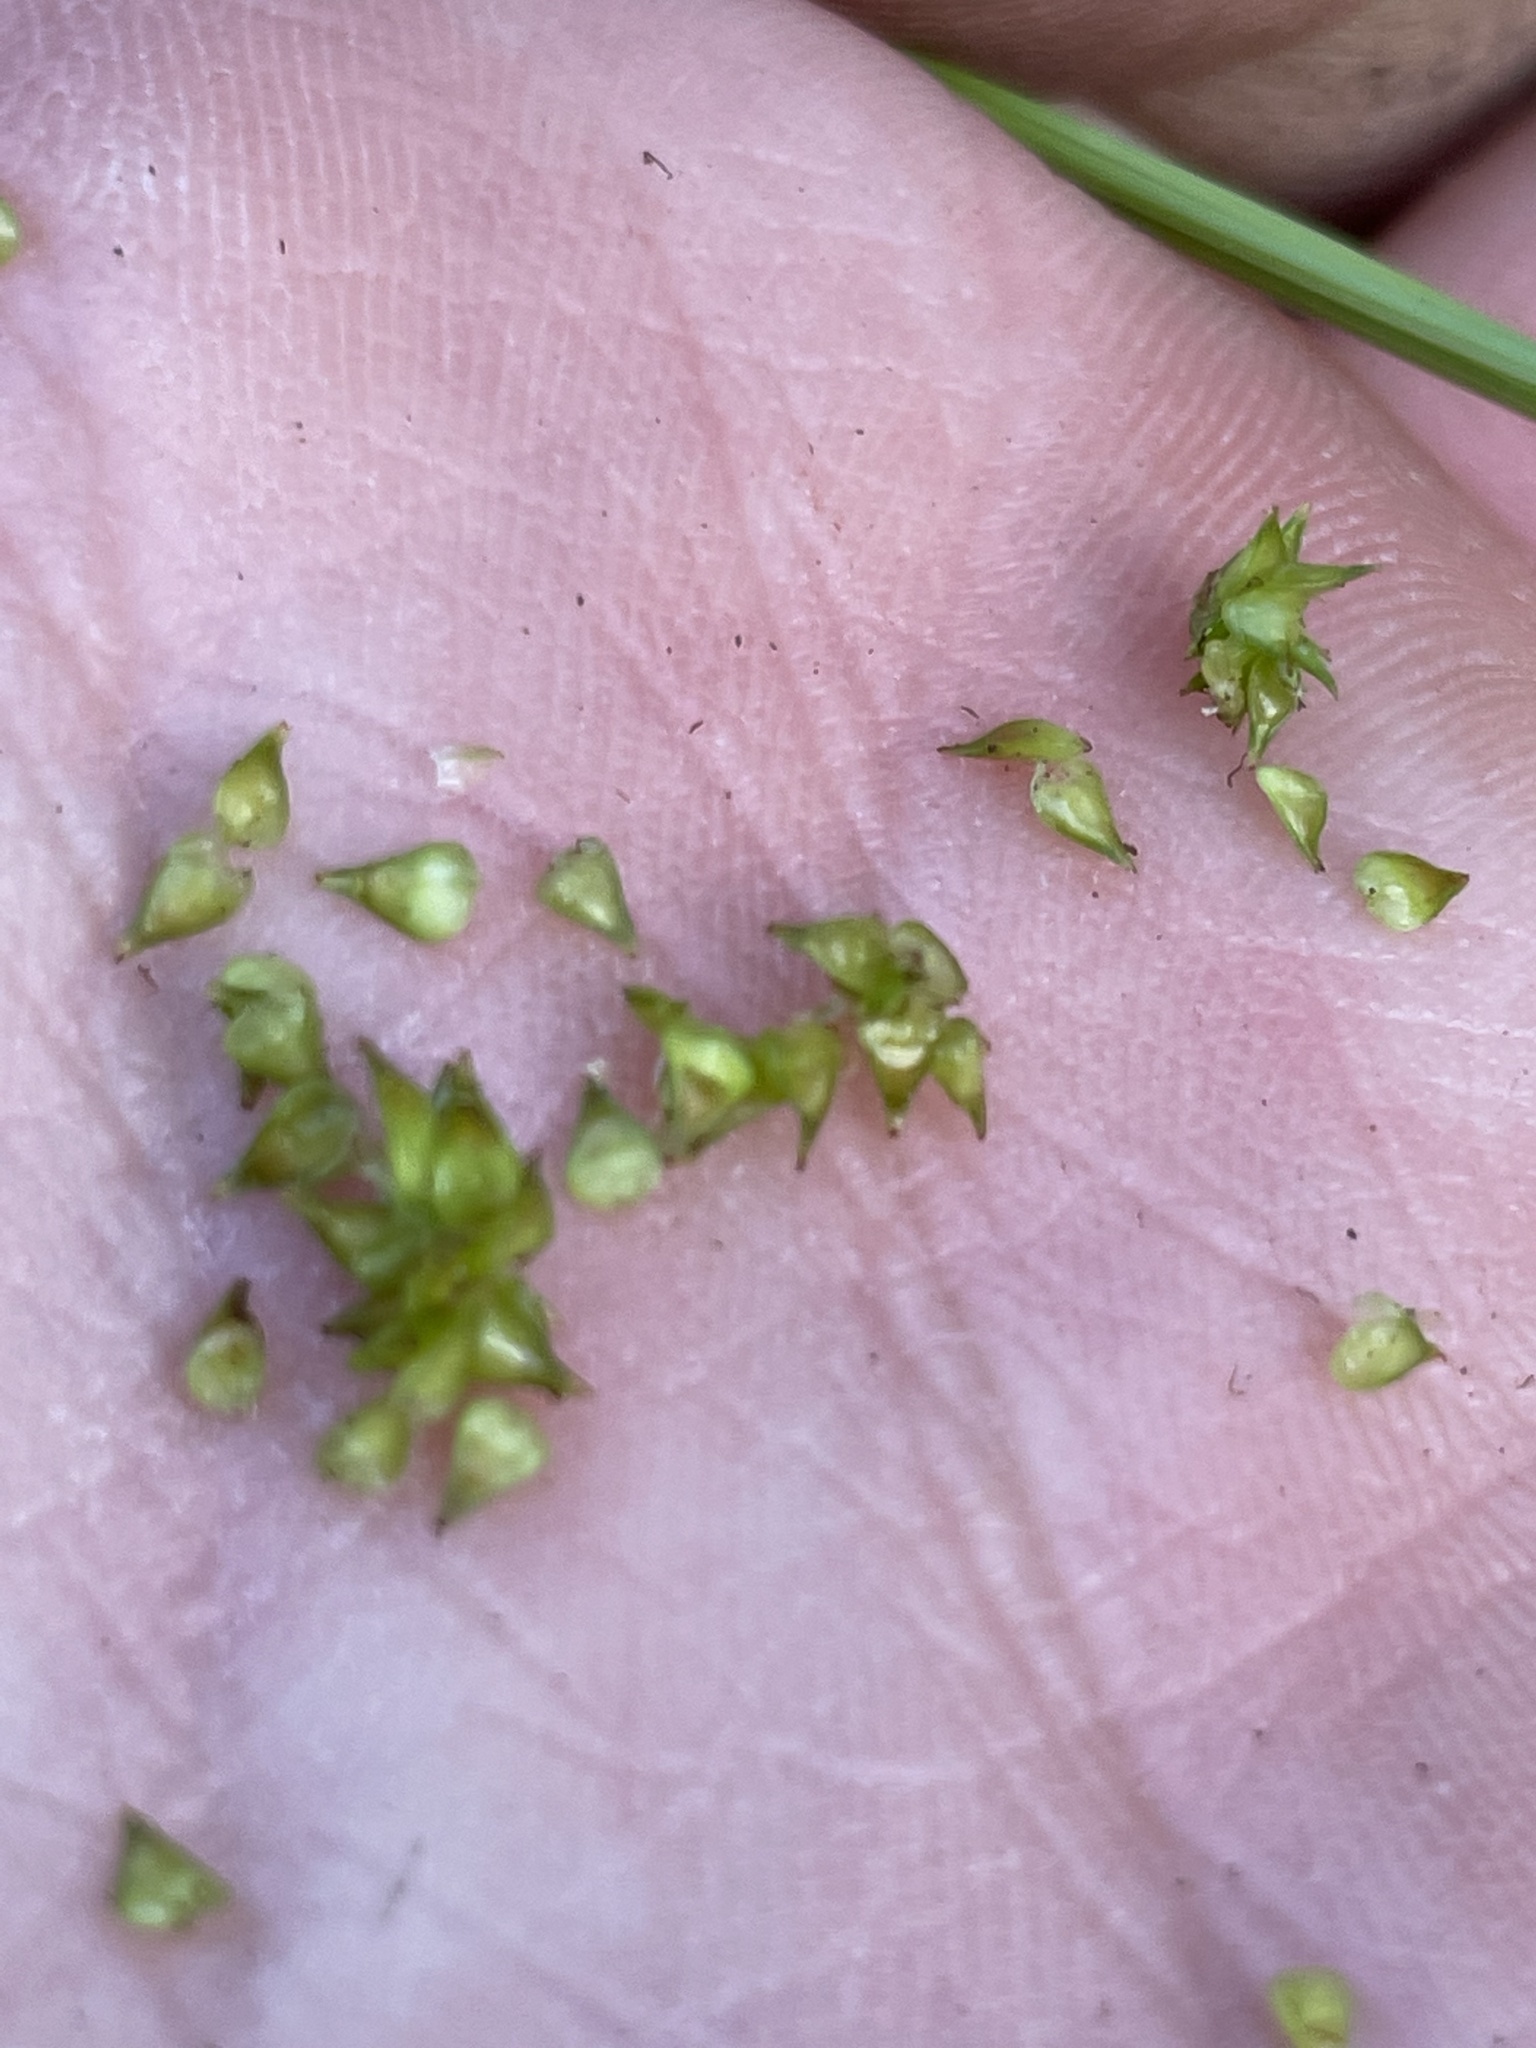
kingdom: Plantae
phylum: Tracheophyta
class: Liliopsida
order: Poales
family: Cyperaceae
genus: Carex
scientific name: Carex atlantica
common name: Atlantic sedge
